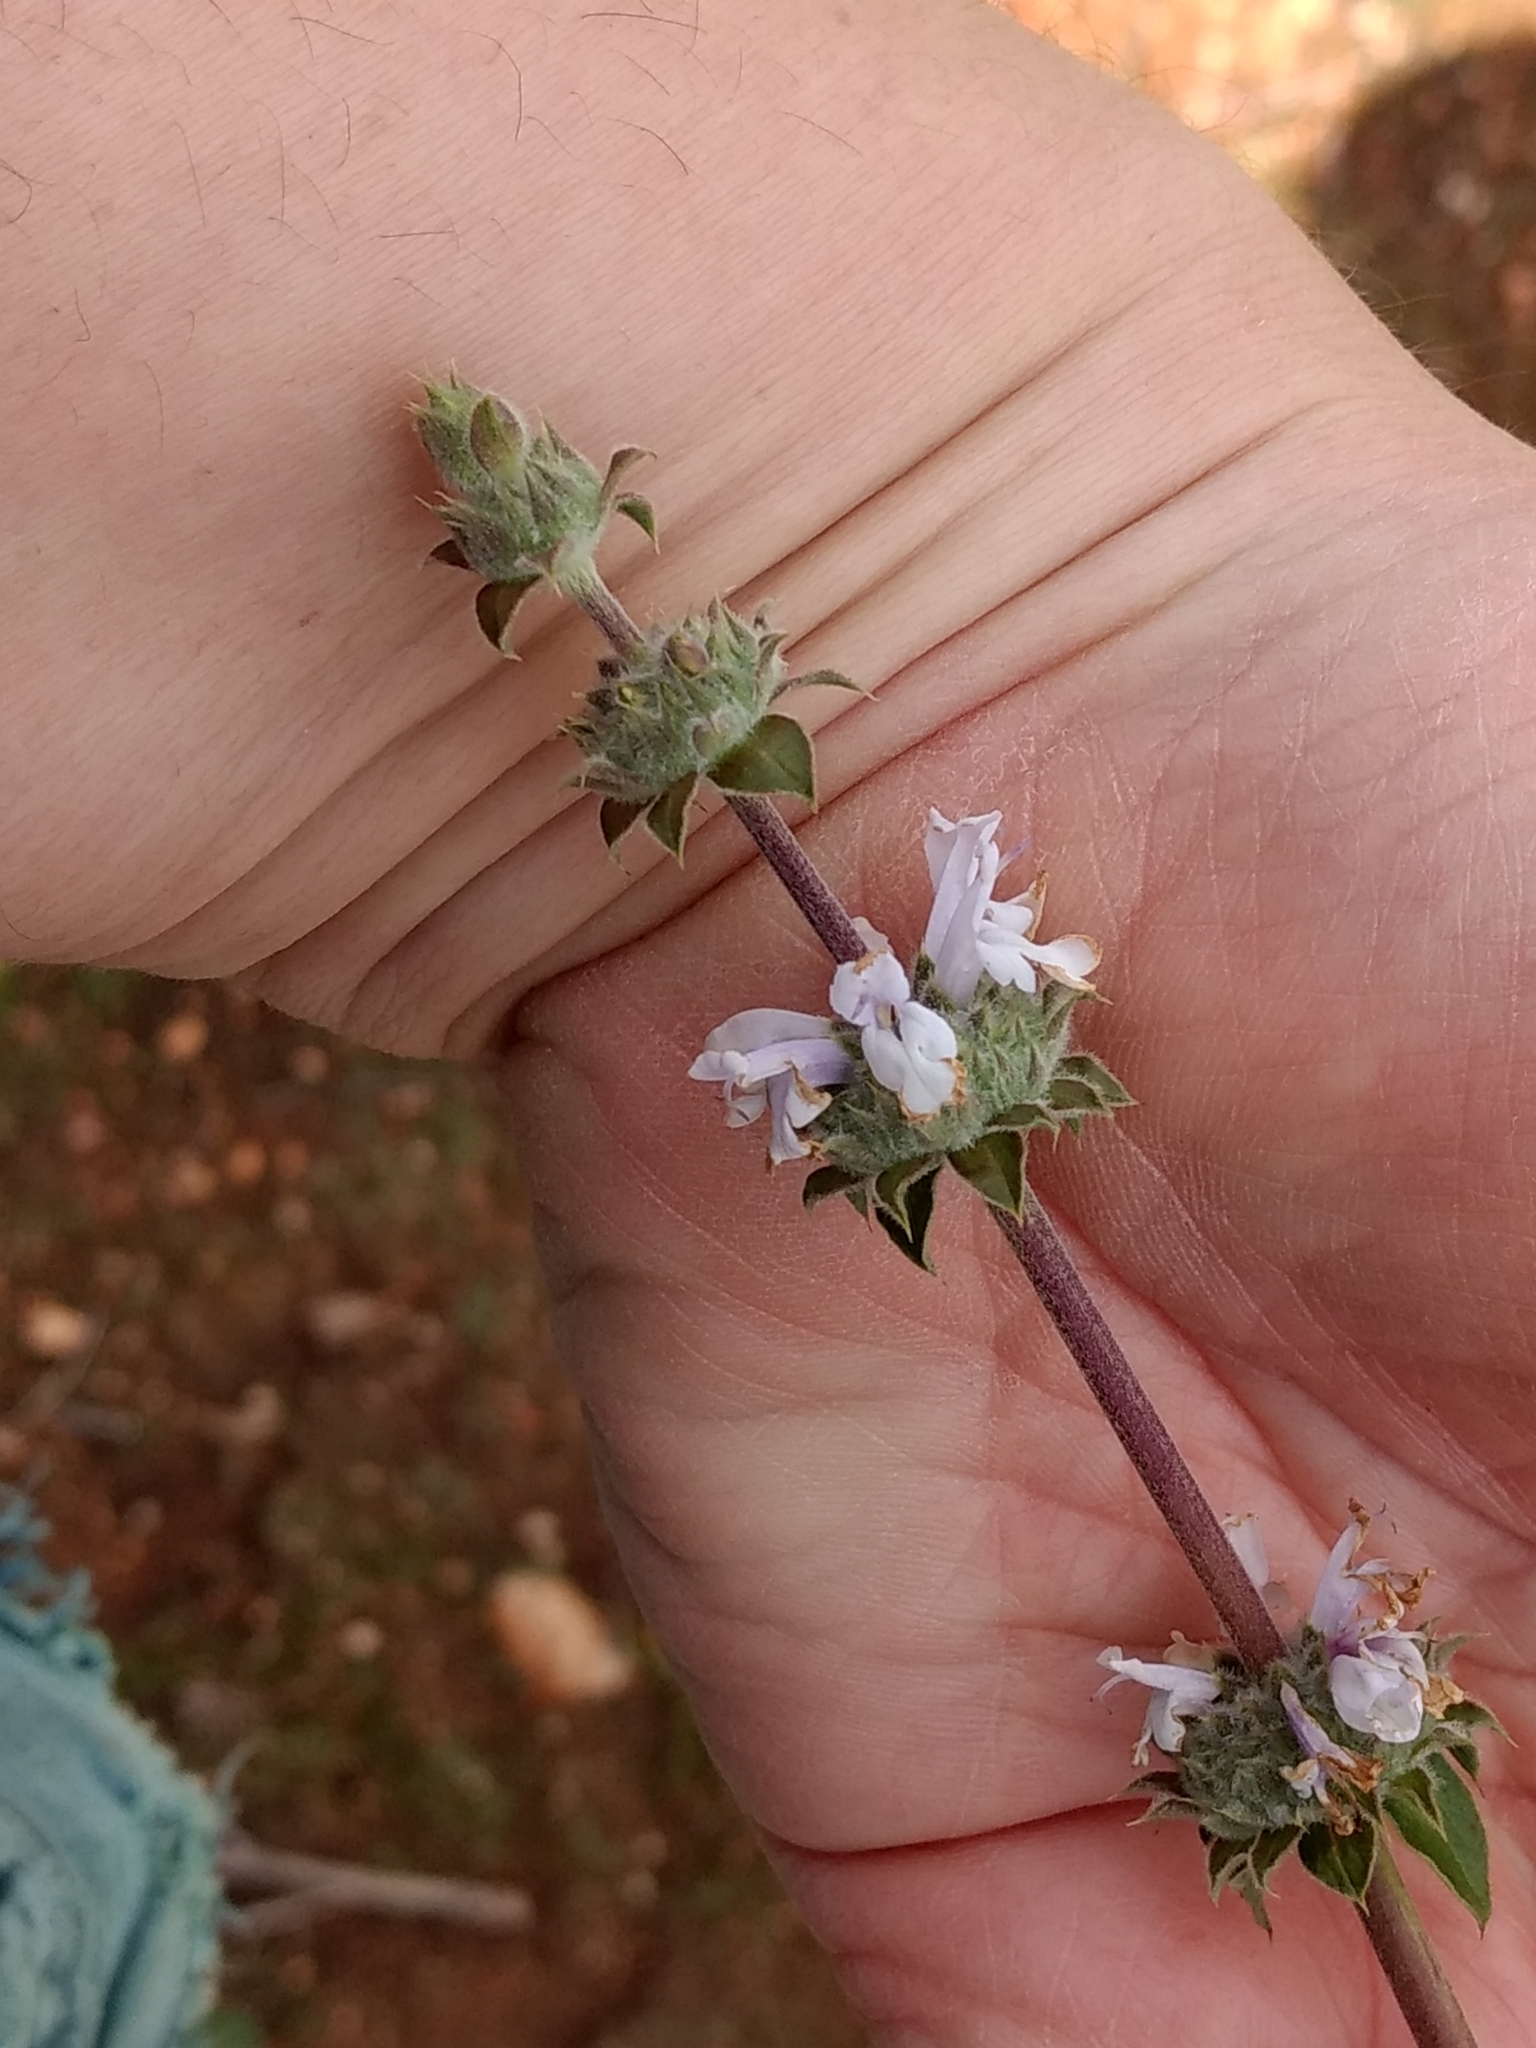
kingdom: Plantae
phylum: Tracheophyta
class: Magnoliopsida
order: Lamiales
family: Lamiaceae
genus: Salvia
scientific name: Salvia mellifera
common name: Black sage
